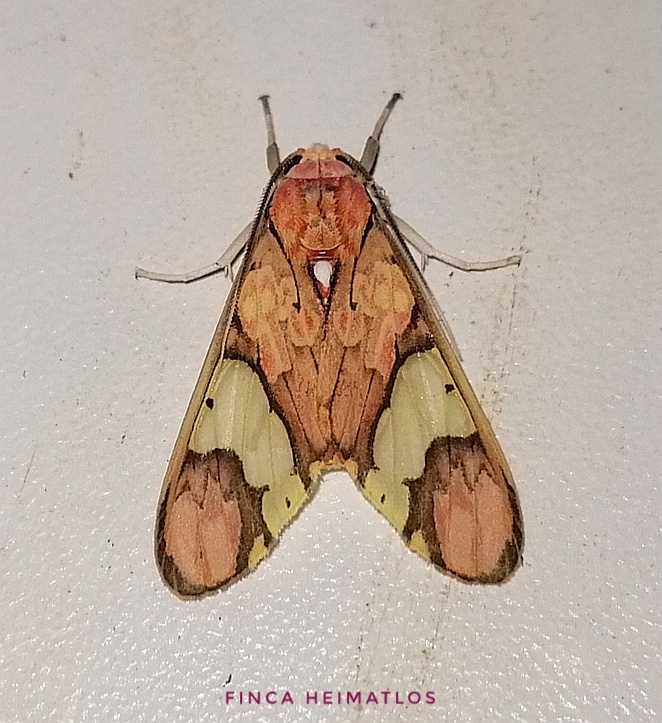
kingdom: Animalia
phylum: Arthropoda
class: Insecta
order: Lepidoptera
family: Erebidae
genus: Neonerita
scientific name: Neonerita dorsipuncta
